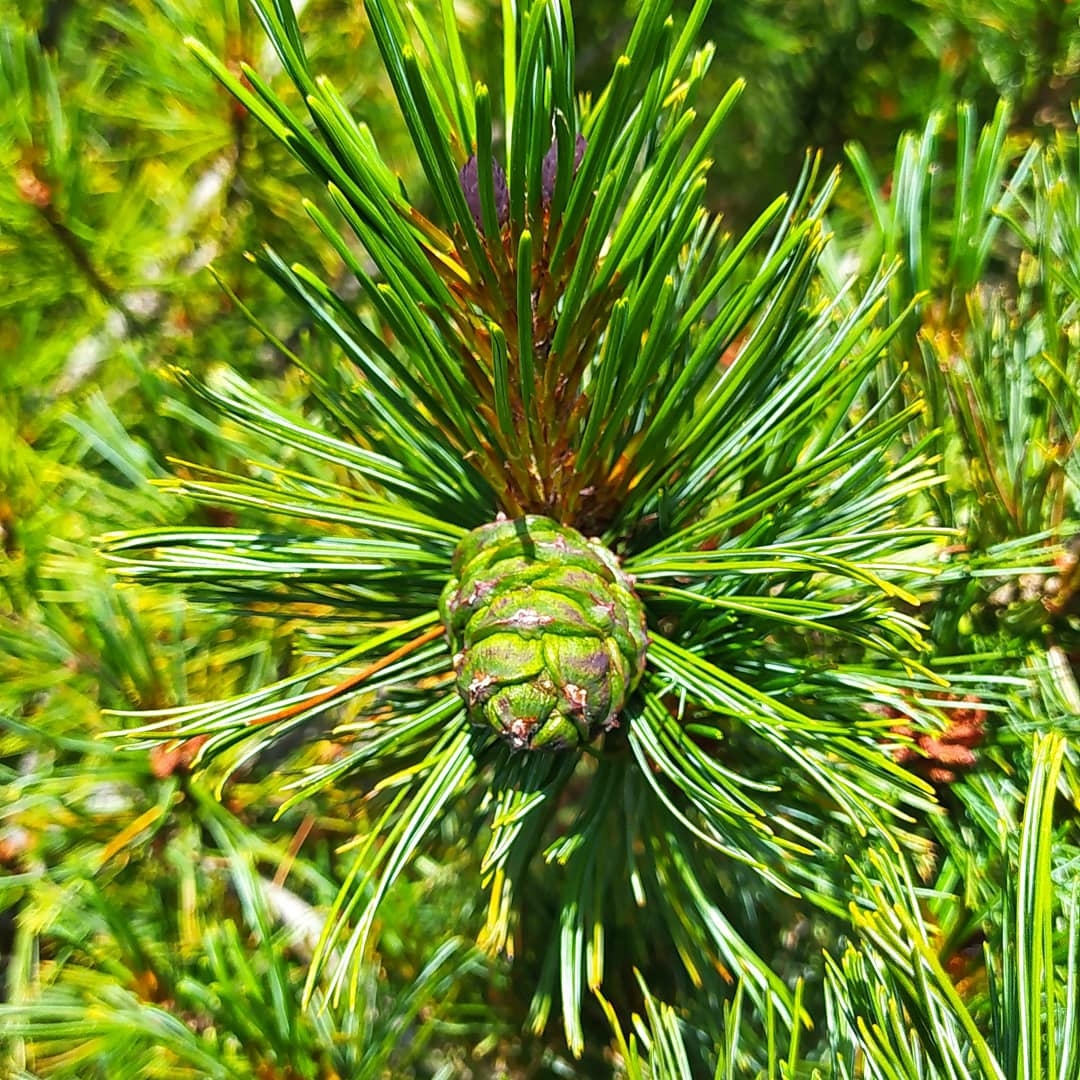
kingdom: Plantae
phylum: Tracheophyta
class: Pinopsida
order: Pinales
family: Pinaceae
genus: Pinus
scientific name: Pinus pumila
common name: Dwarf siberian pine
